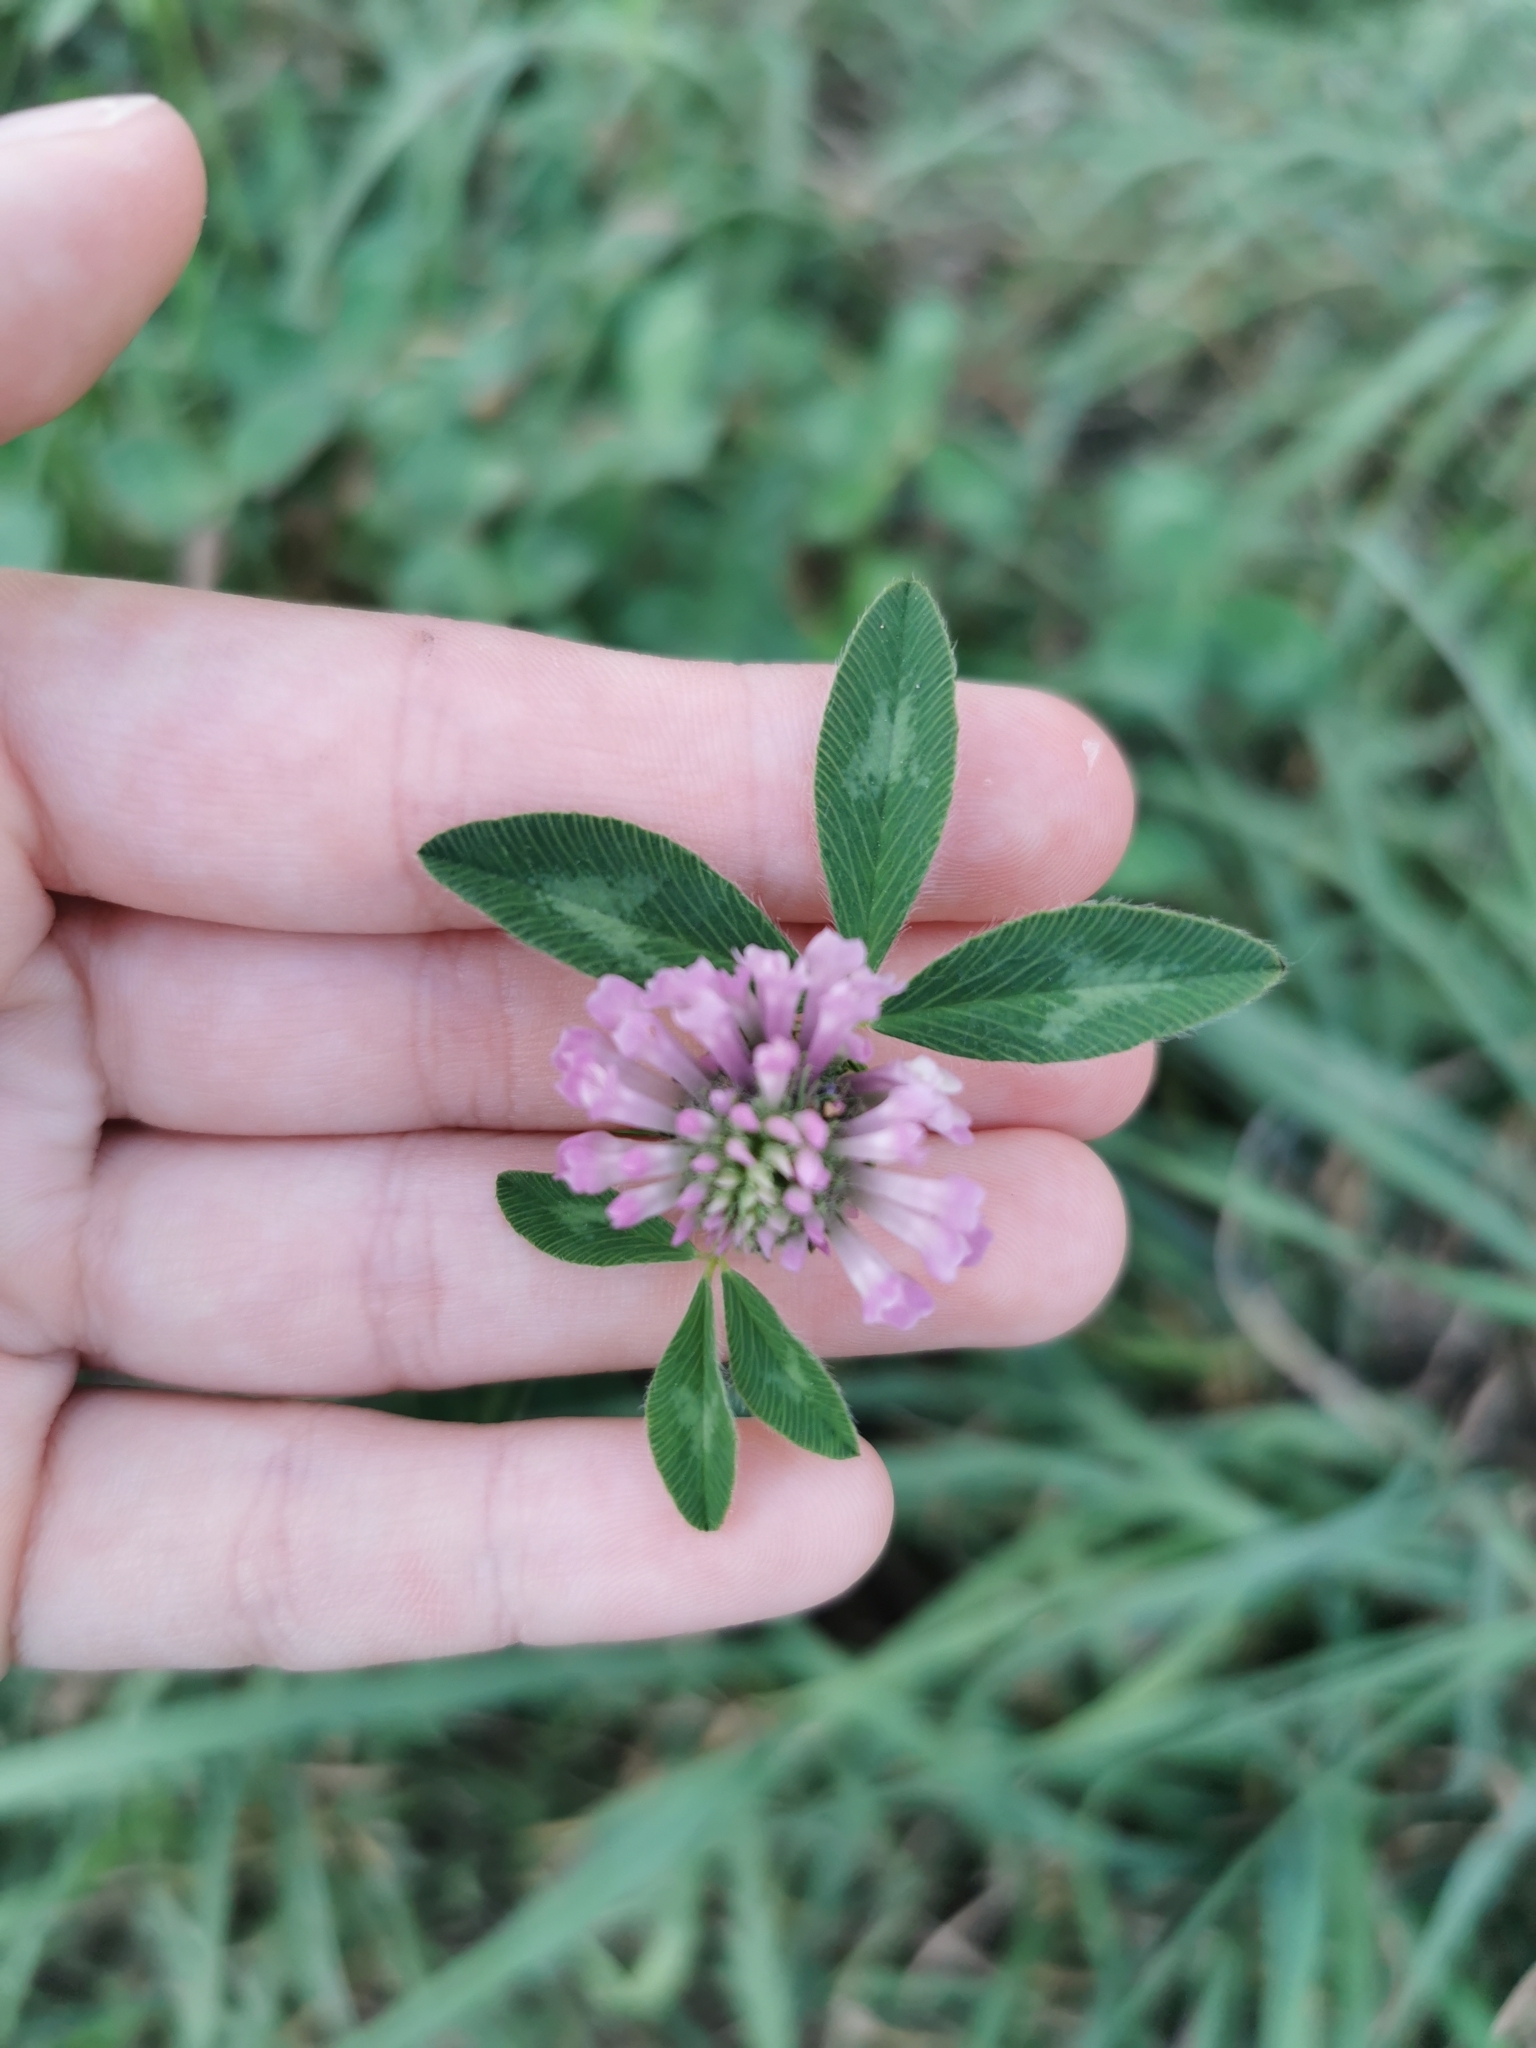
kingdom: Plantae
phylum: Tracheophyta
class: Magnoliopsida
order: Fabales
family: Fabaceae
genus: Trifolium
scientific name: Trifolium pratense
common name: Red clover
